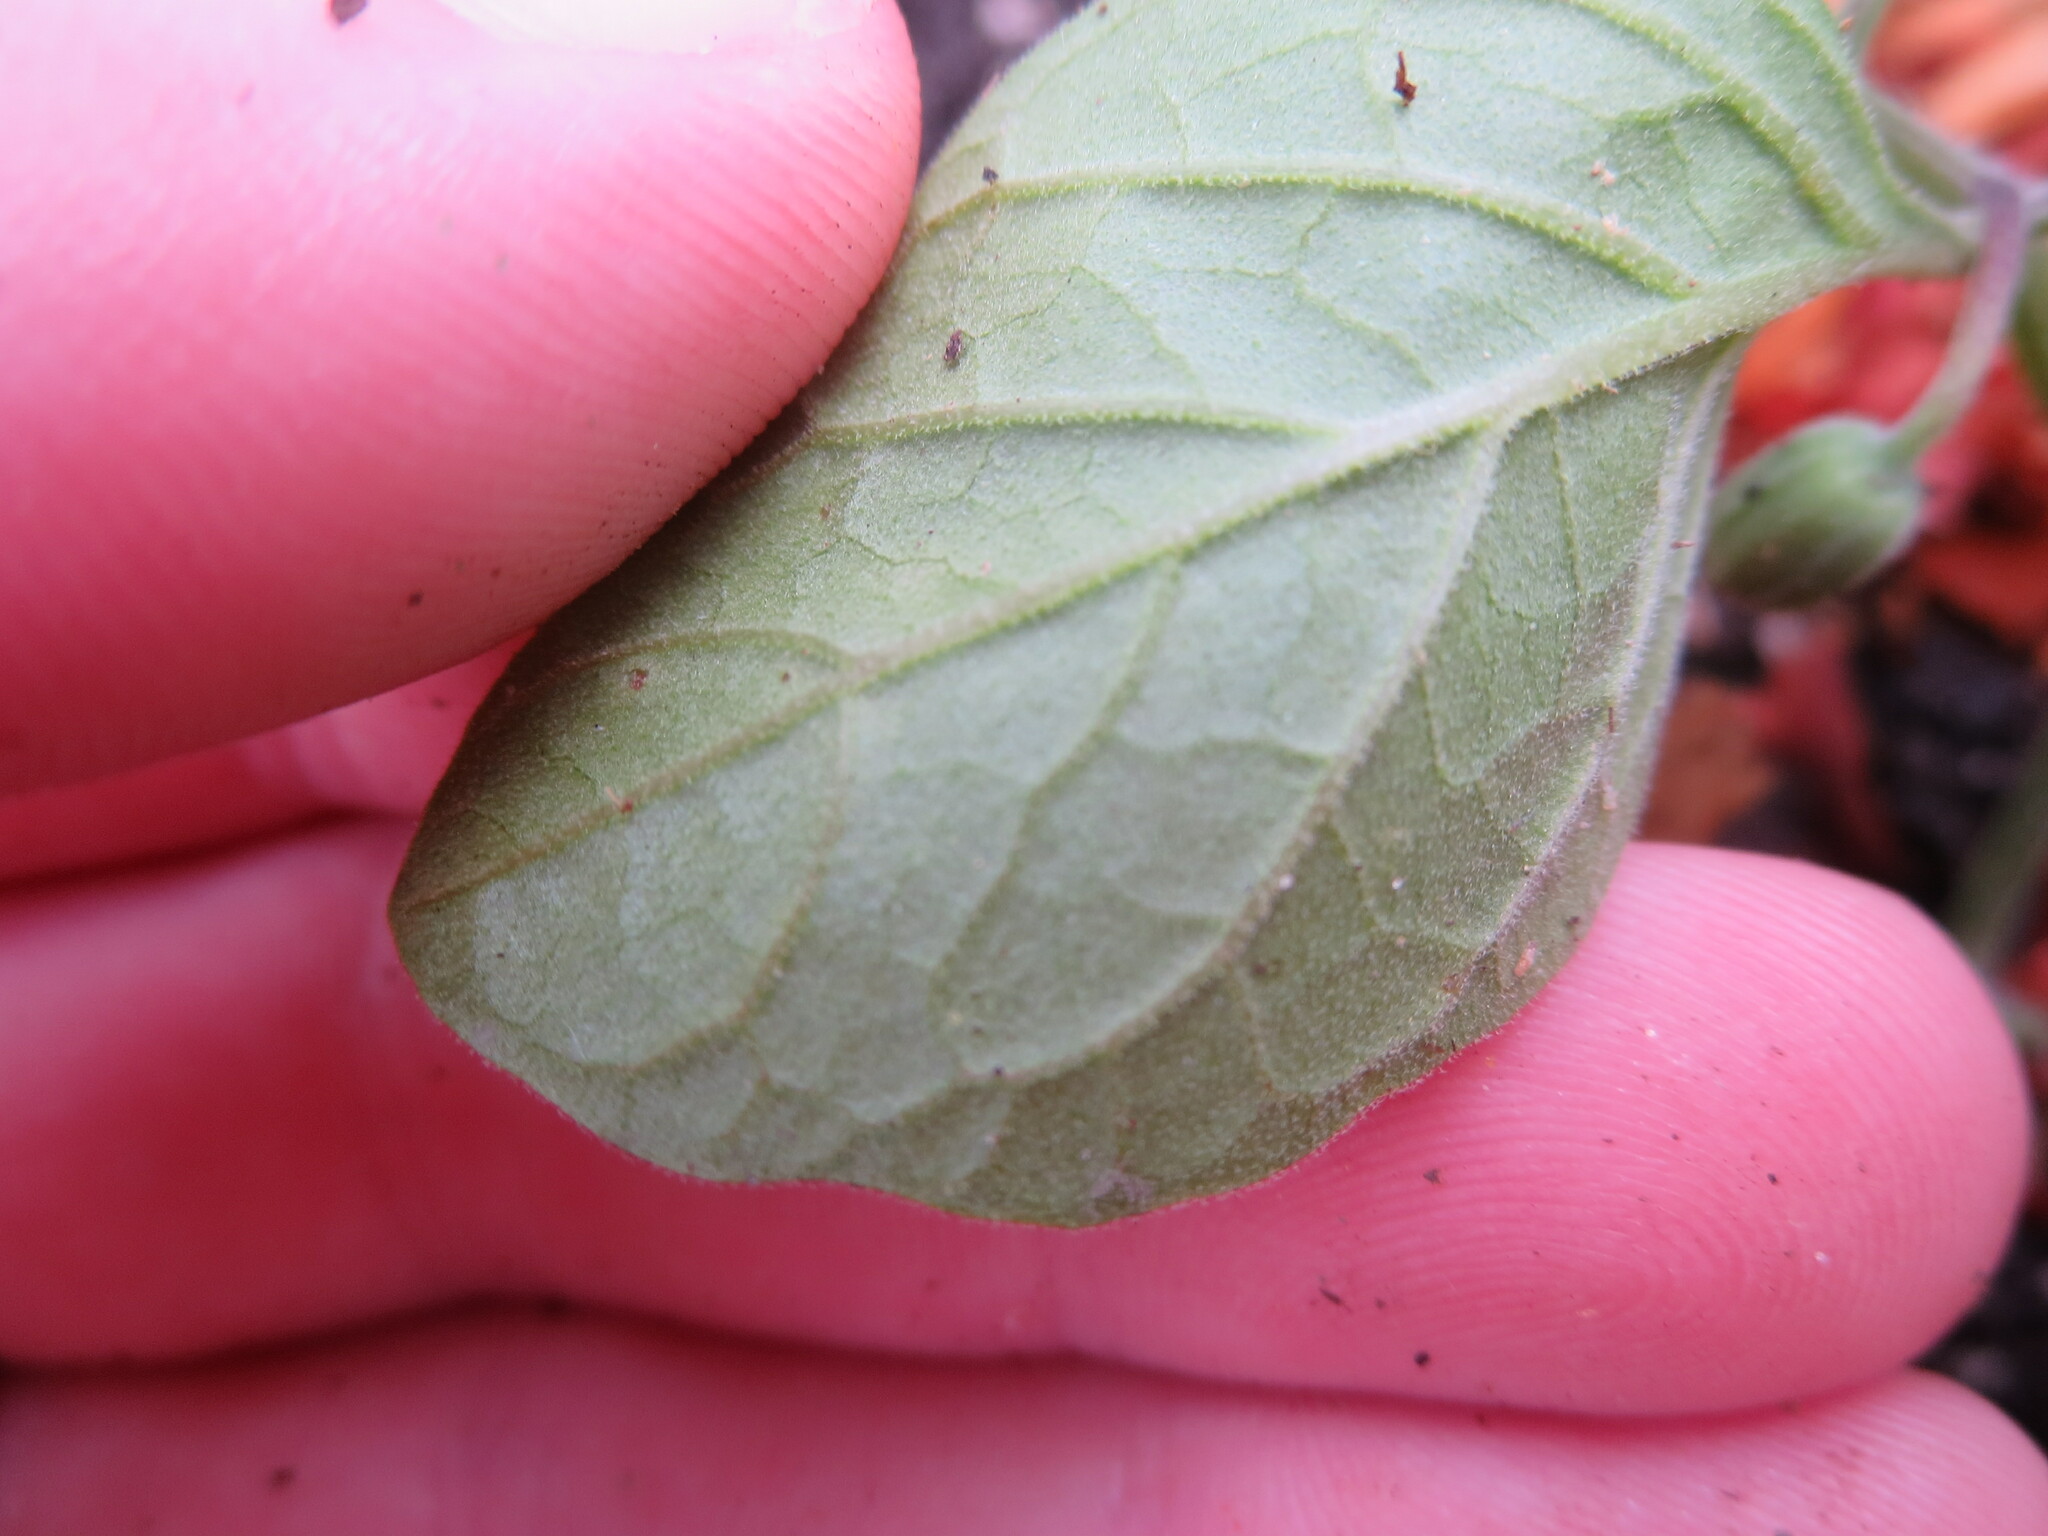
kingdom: Plantae
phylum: Tracheophyta
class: Magnoliopsida
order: Solanales
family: Solanaceae
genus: Physalis
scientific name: Physalis walteri
